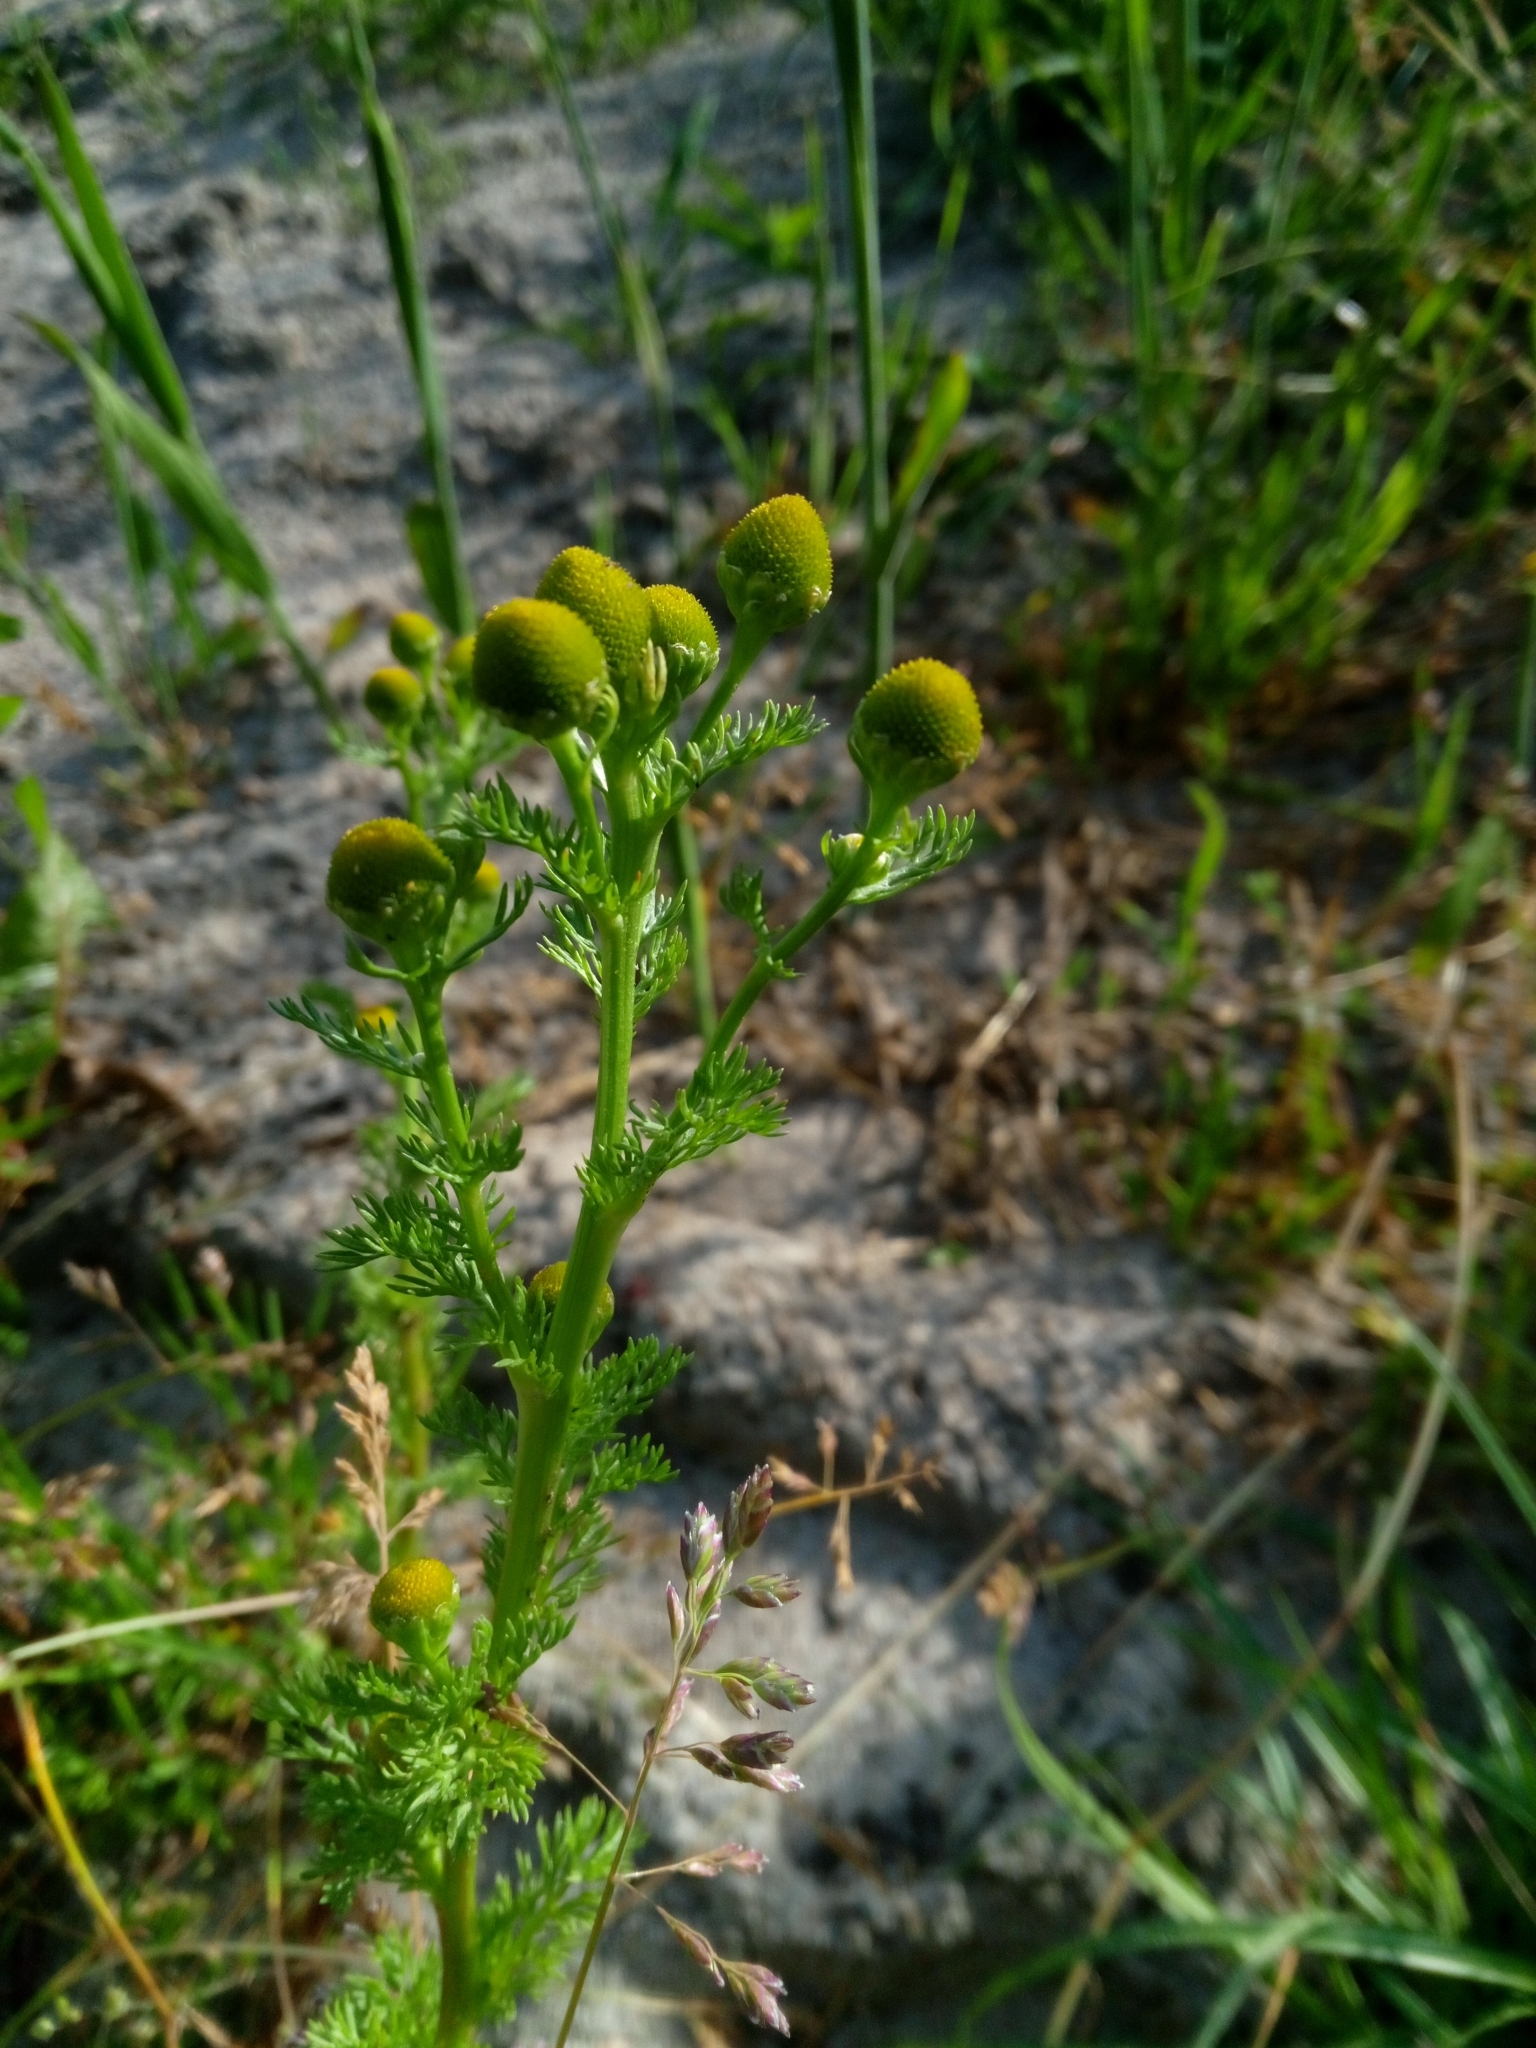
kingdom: Plantae
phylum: Tracheophyta
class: Magnoliopsida
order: Asterales
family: Asteraceae
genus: Matricaria
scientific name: Matricaria discoidea
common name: Disc mayweed
